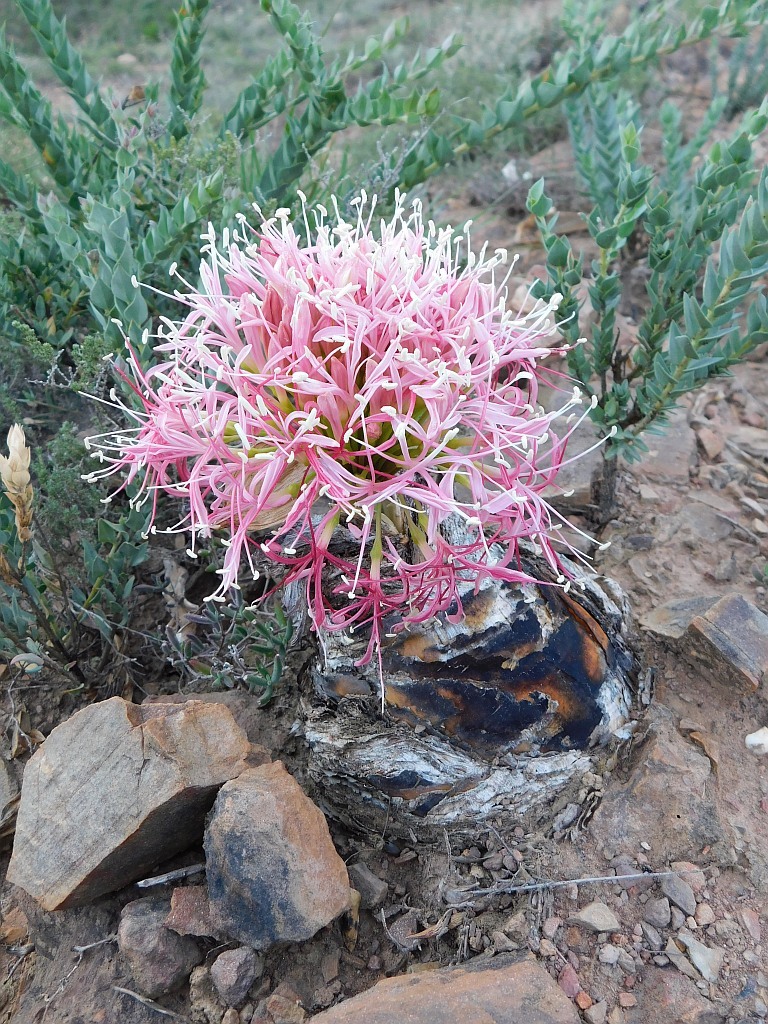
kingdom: Plantae
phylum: Tracheophyta
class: Liliopsida
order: Asparagales
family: Amaryllidaceae
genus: Boophone
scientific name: Boophone disticha
